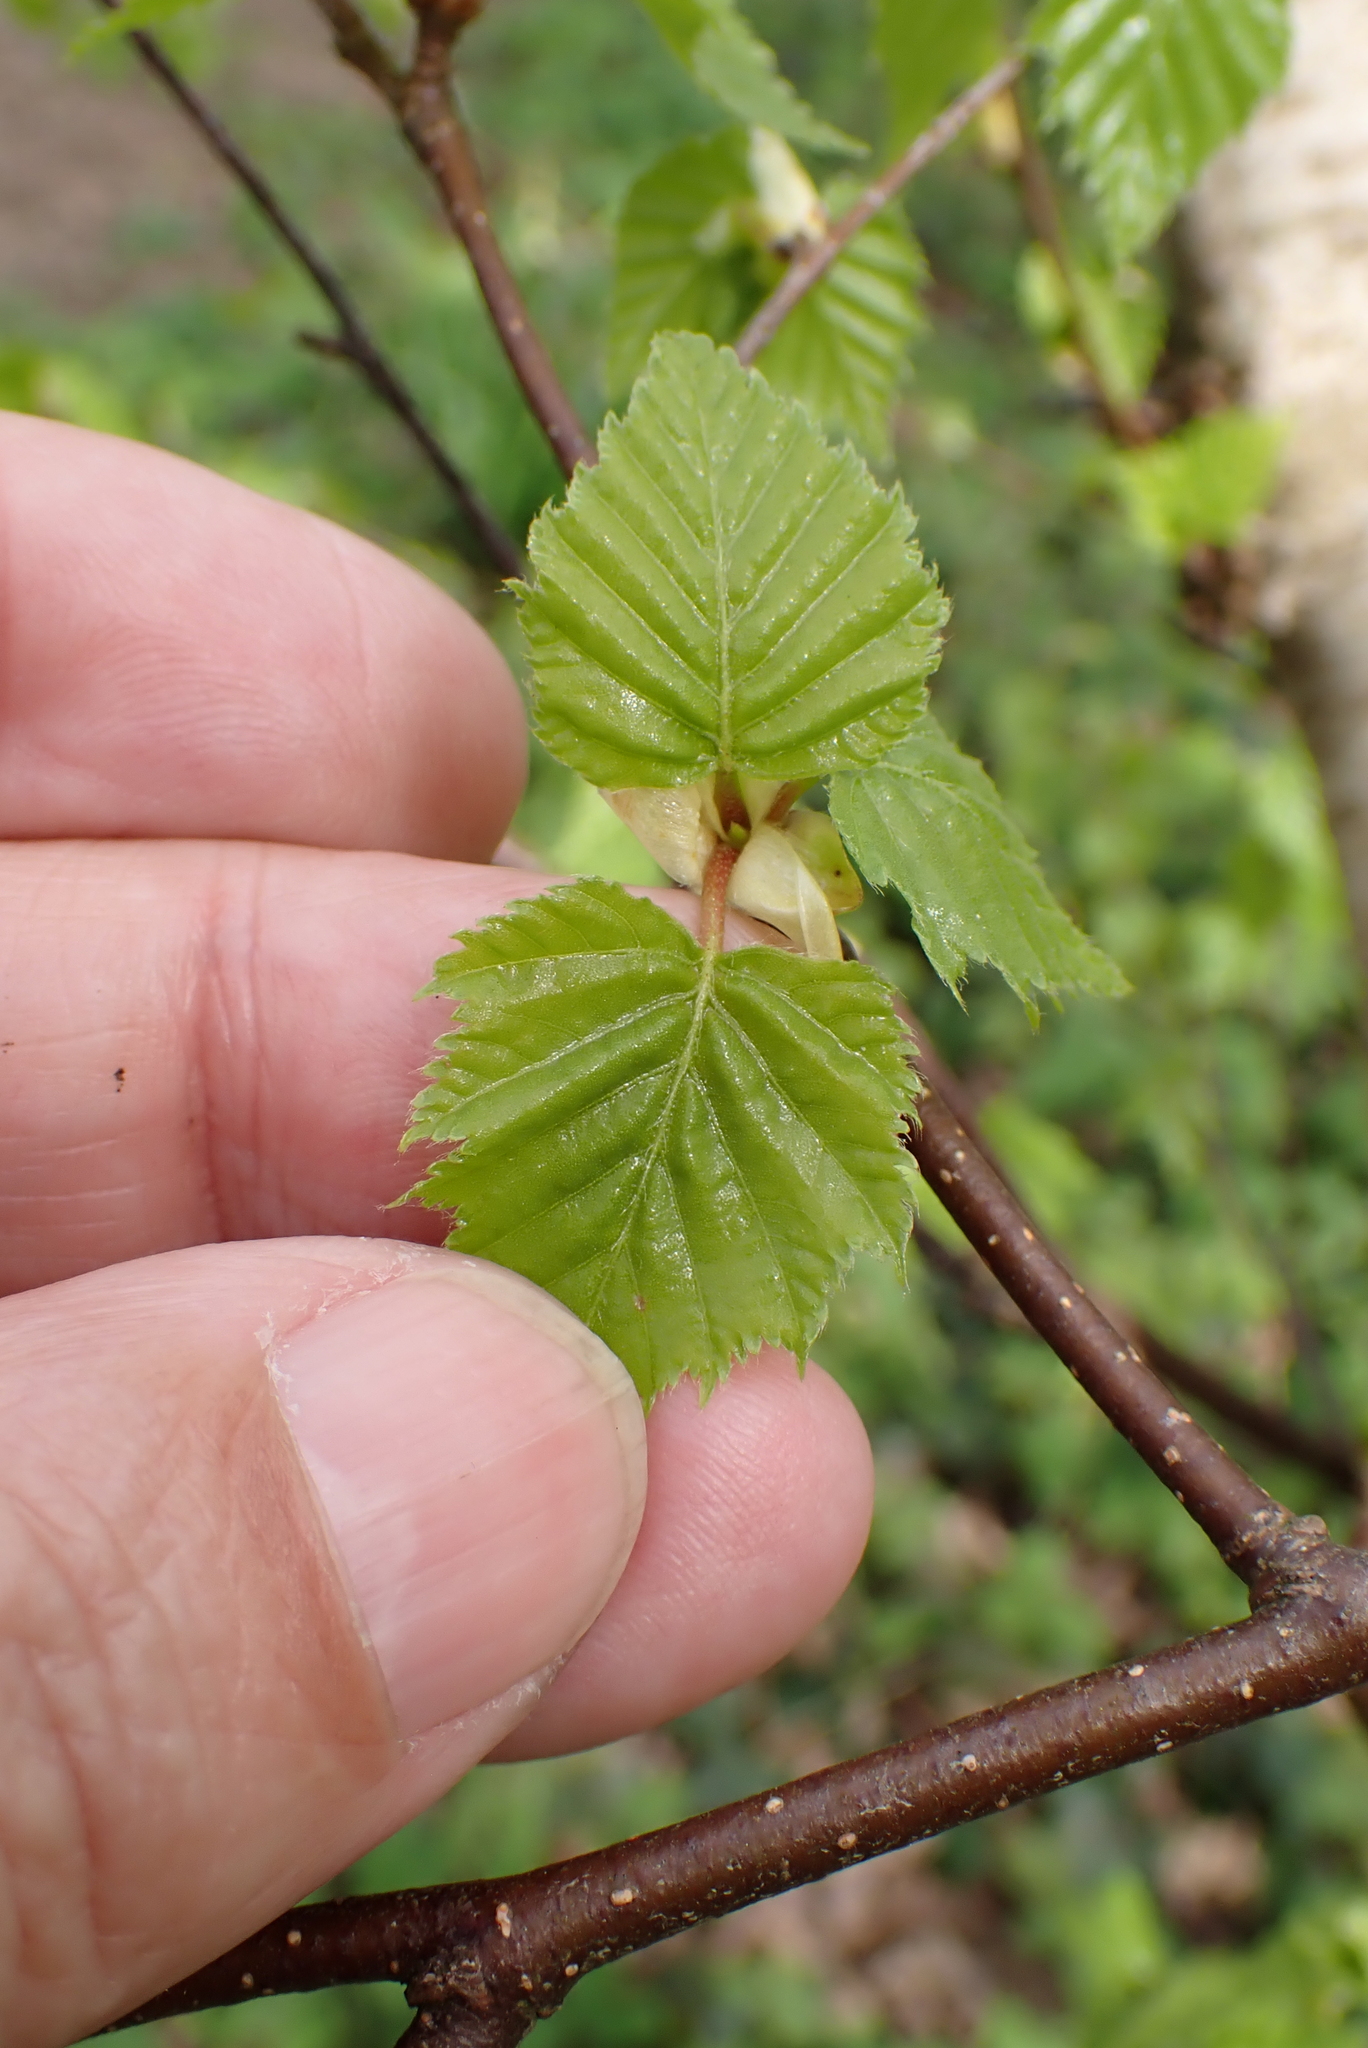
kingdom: Plantae
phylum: Tracheophyta
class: Magnoliopsida
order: Fagales
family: Betulaceae
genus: Betula
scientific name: Betula pubescens
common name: Downy birch
